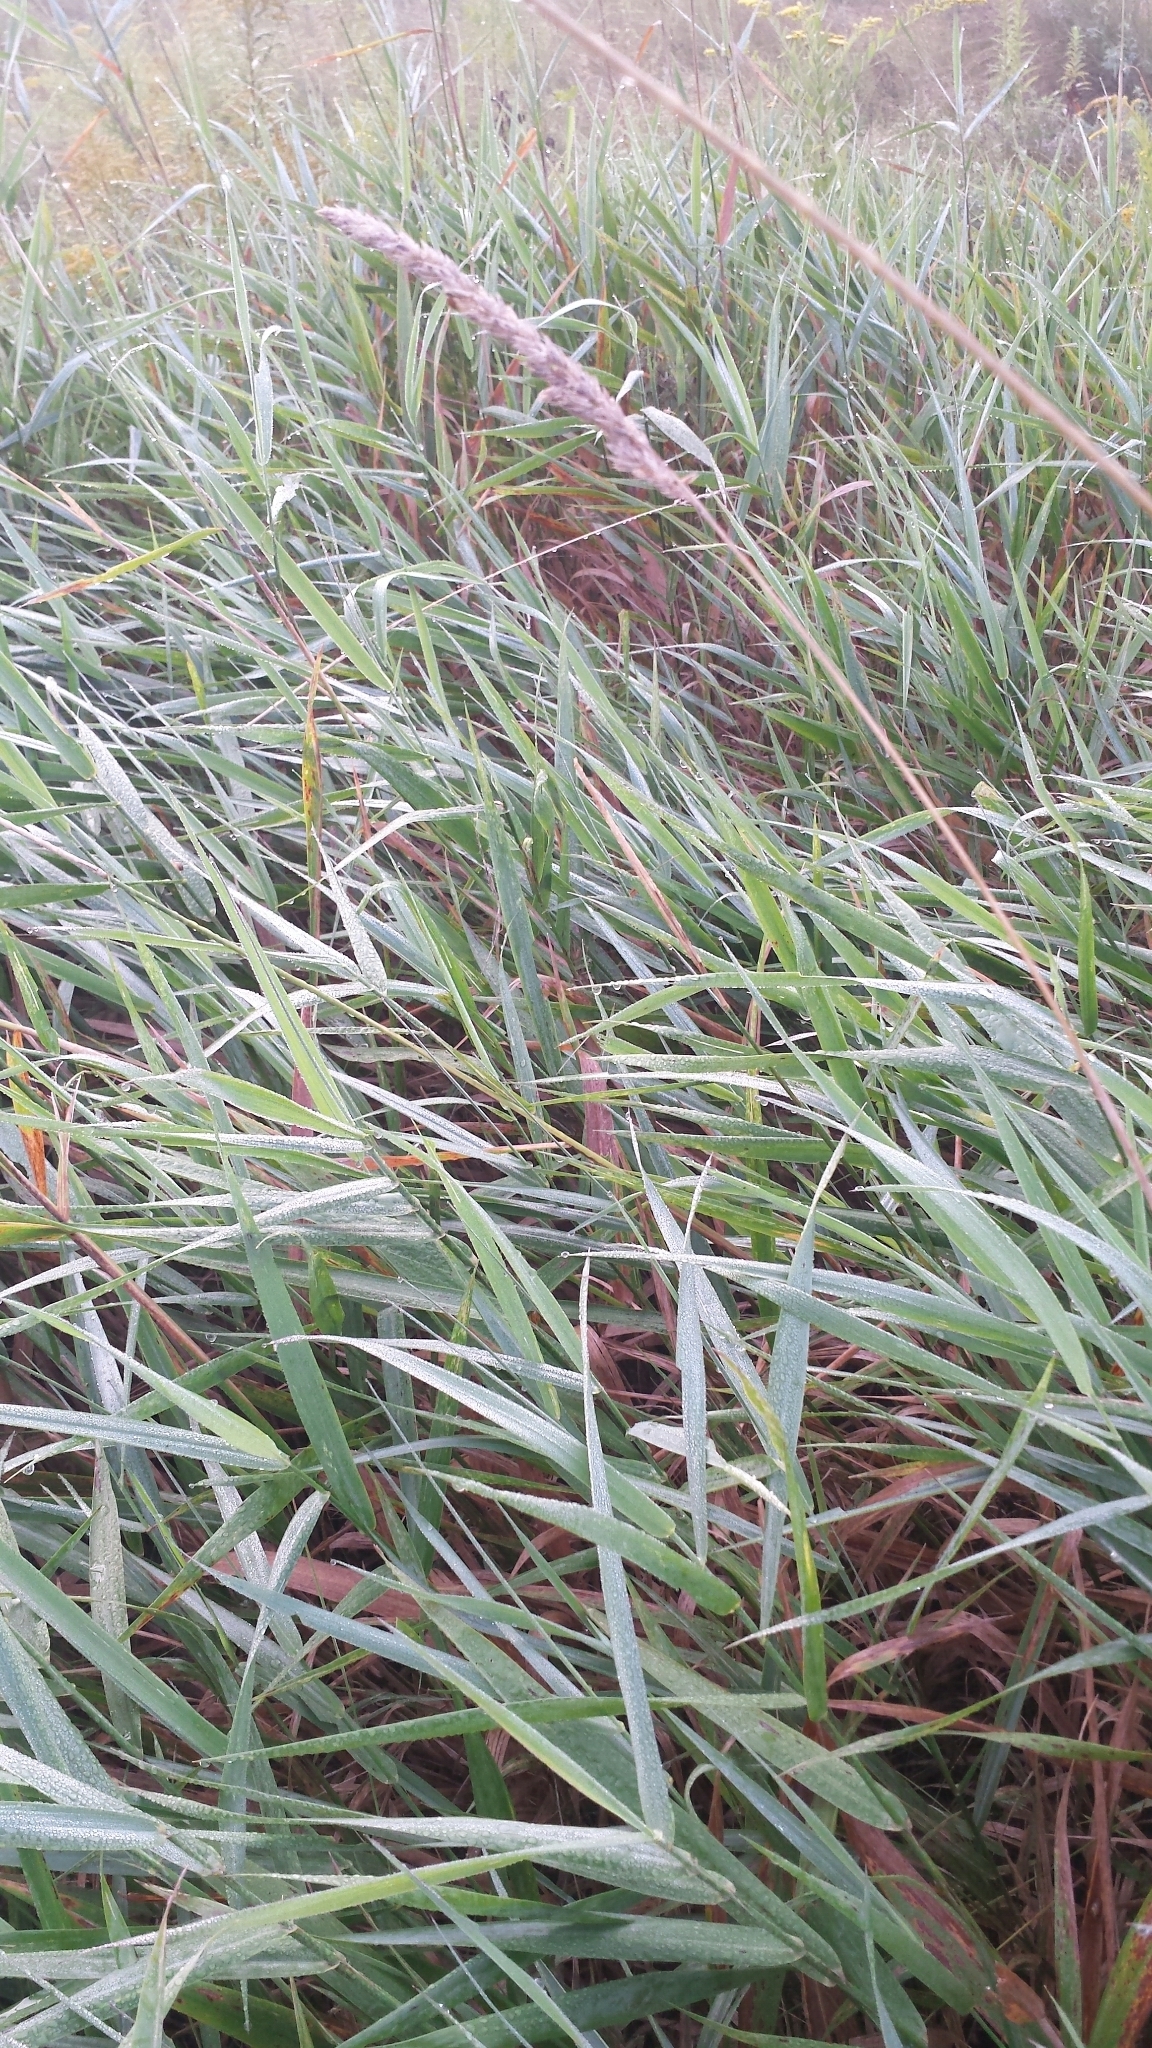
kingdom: Plantae
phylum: Tracheophyta
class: Liliopsida
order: Poales
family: Poaceae
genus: Phalaris
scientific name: Phalaris arundinacea
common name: Reed canary-grass
